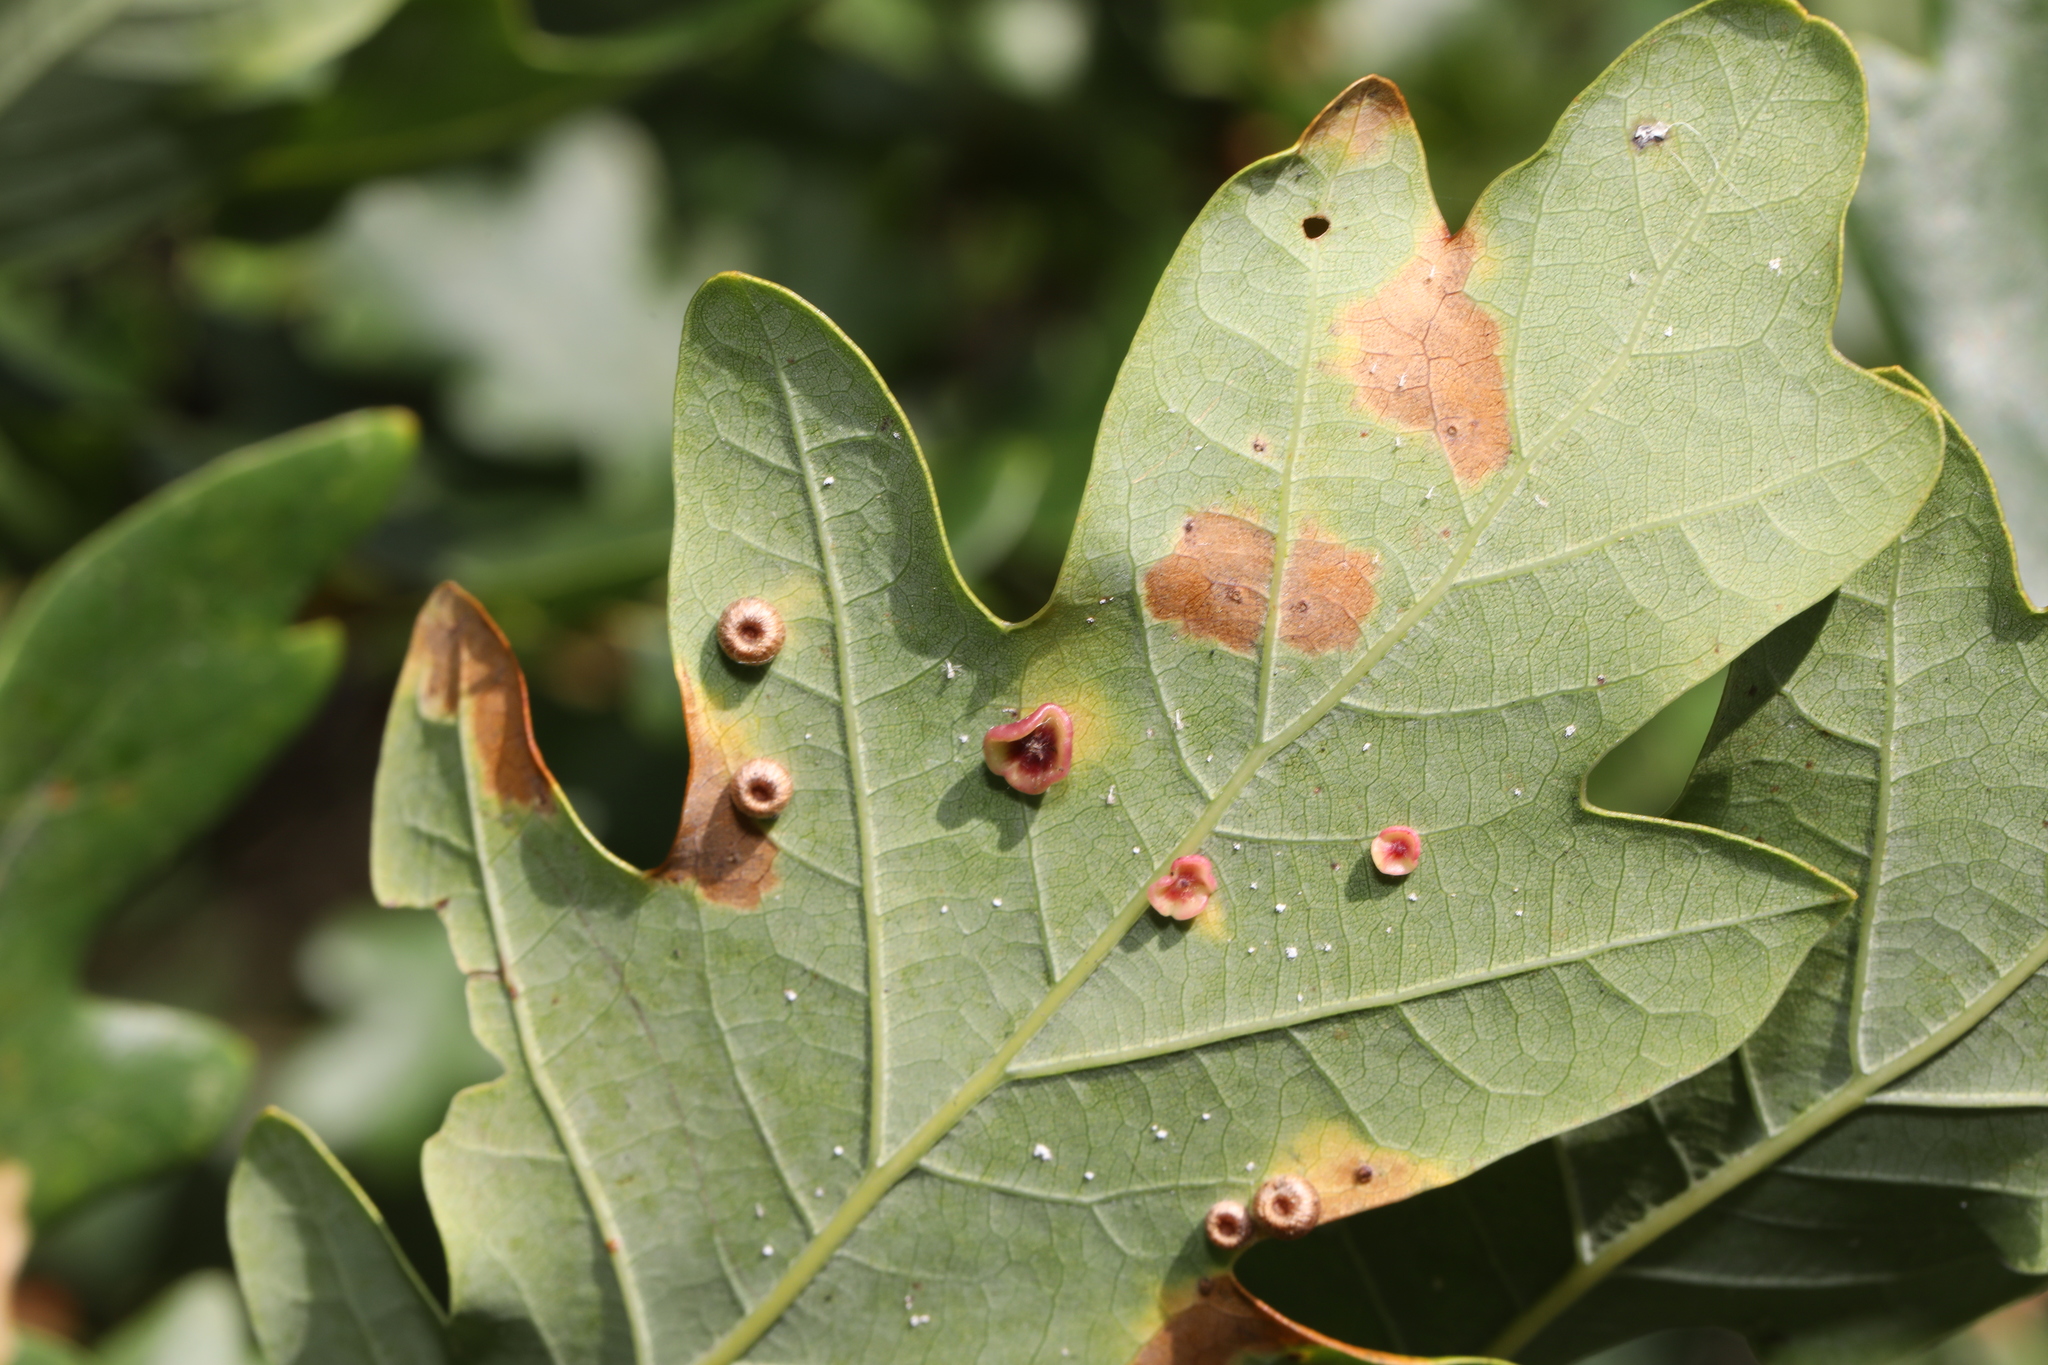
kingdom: Animalia
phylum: Arthropoda
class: Insecta
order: Hymenoptera
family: Cynipidae
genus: Neuroterus
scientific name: Neuroterus albipes
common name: Smooth spangle gall
